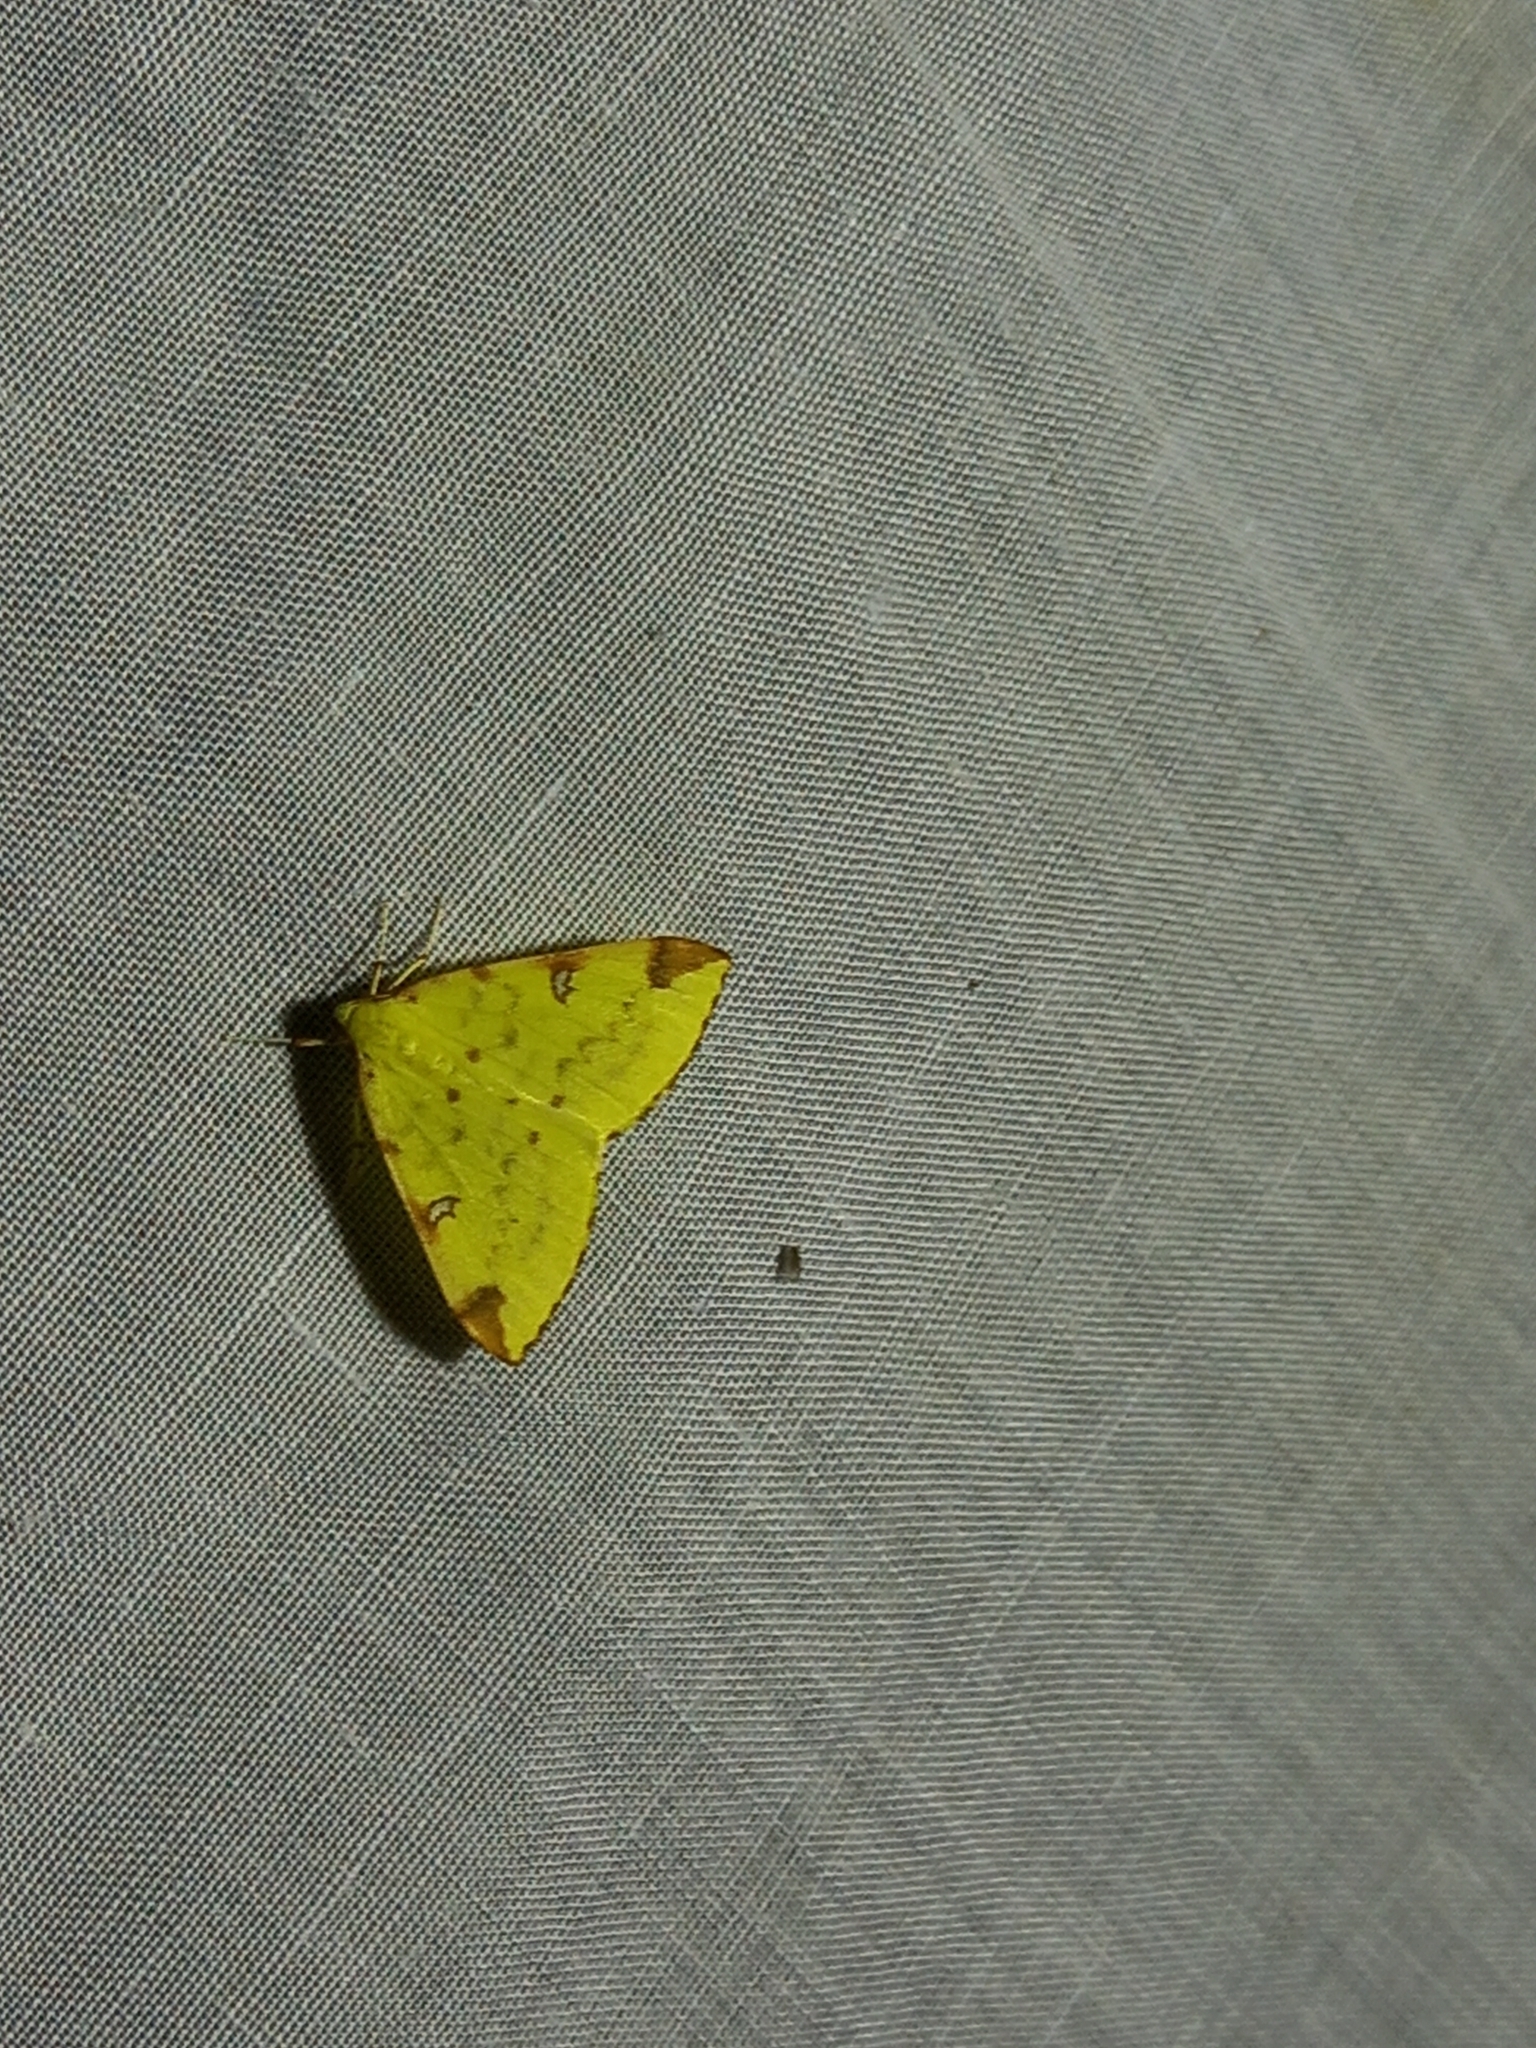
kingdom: Animalia
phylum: Arthropoda
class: Insecta
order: Lepidoptera
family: Geometridae
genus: Opisthograptis
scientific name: Opisthograptis luteolata
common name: Brimstone moth
